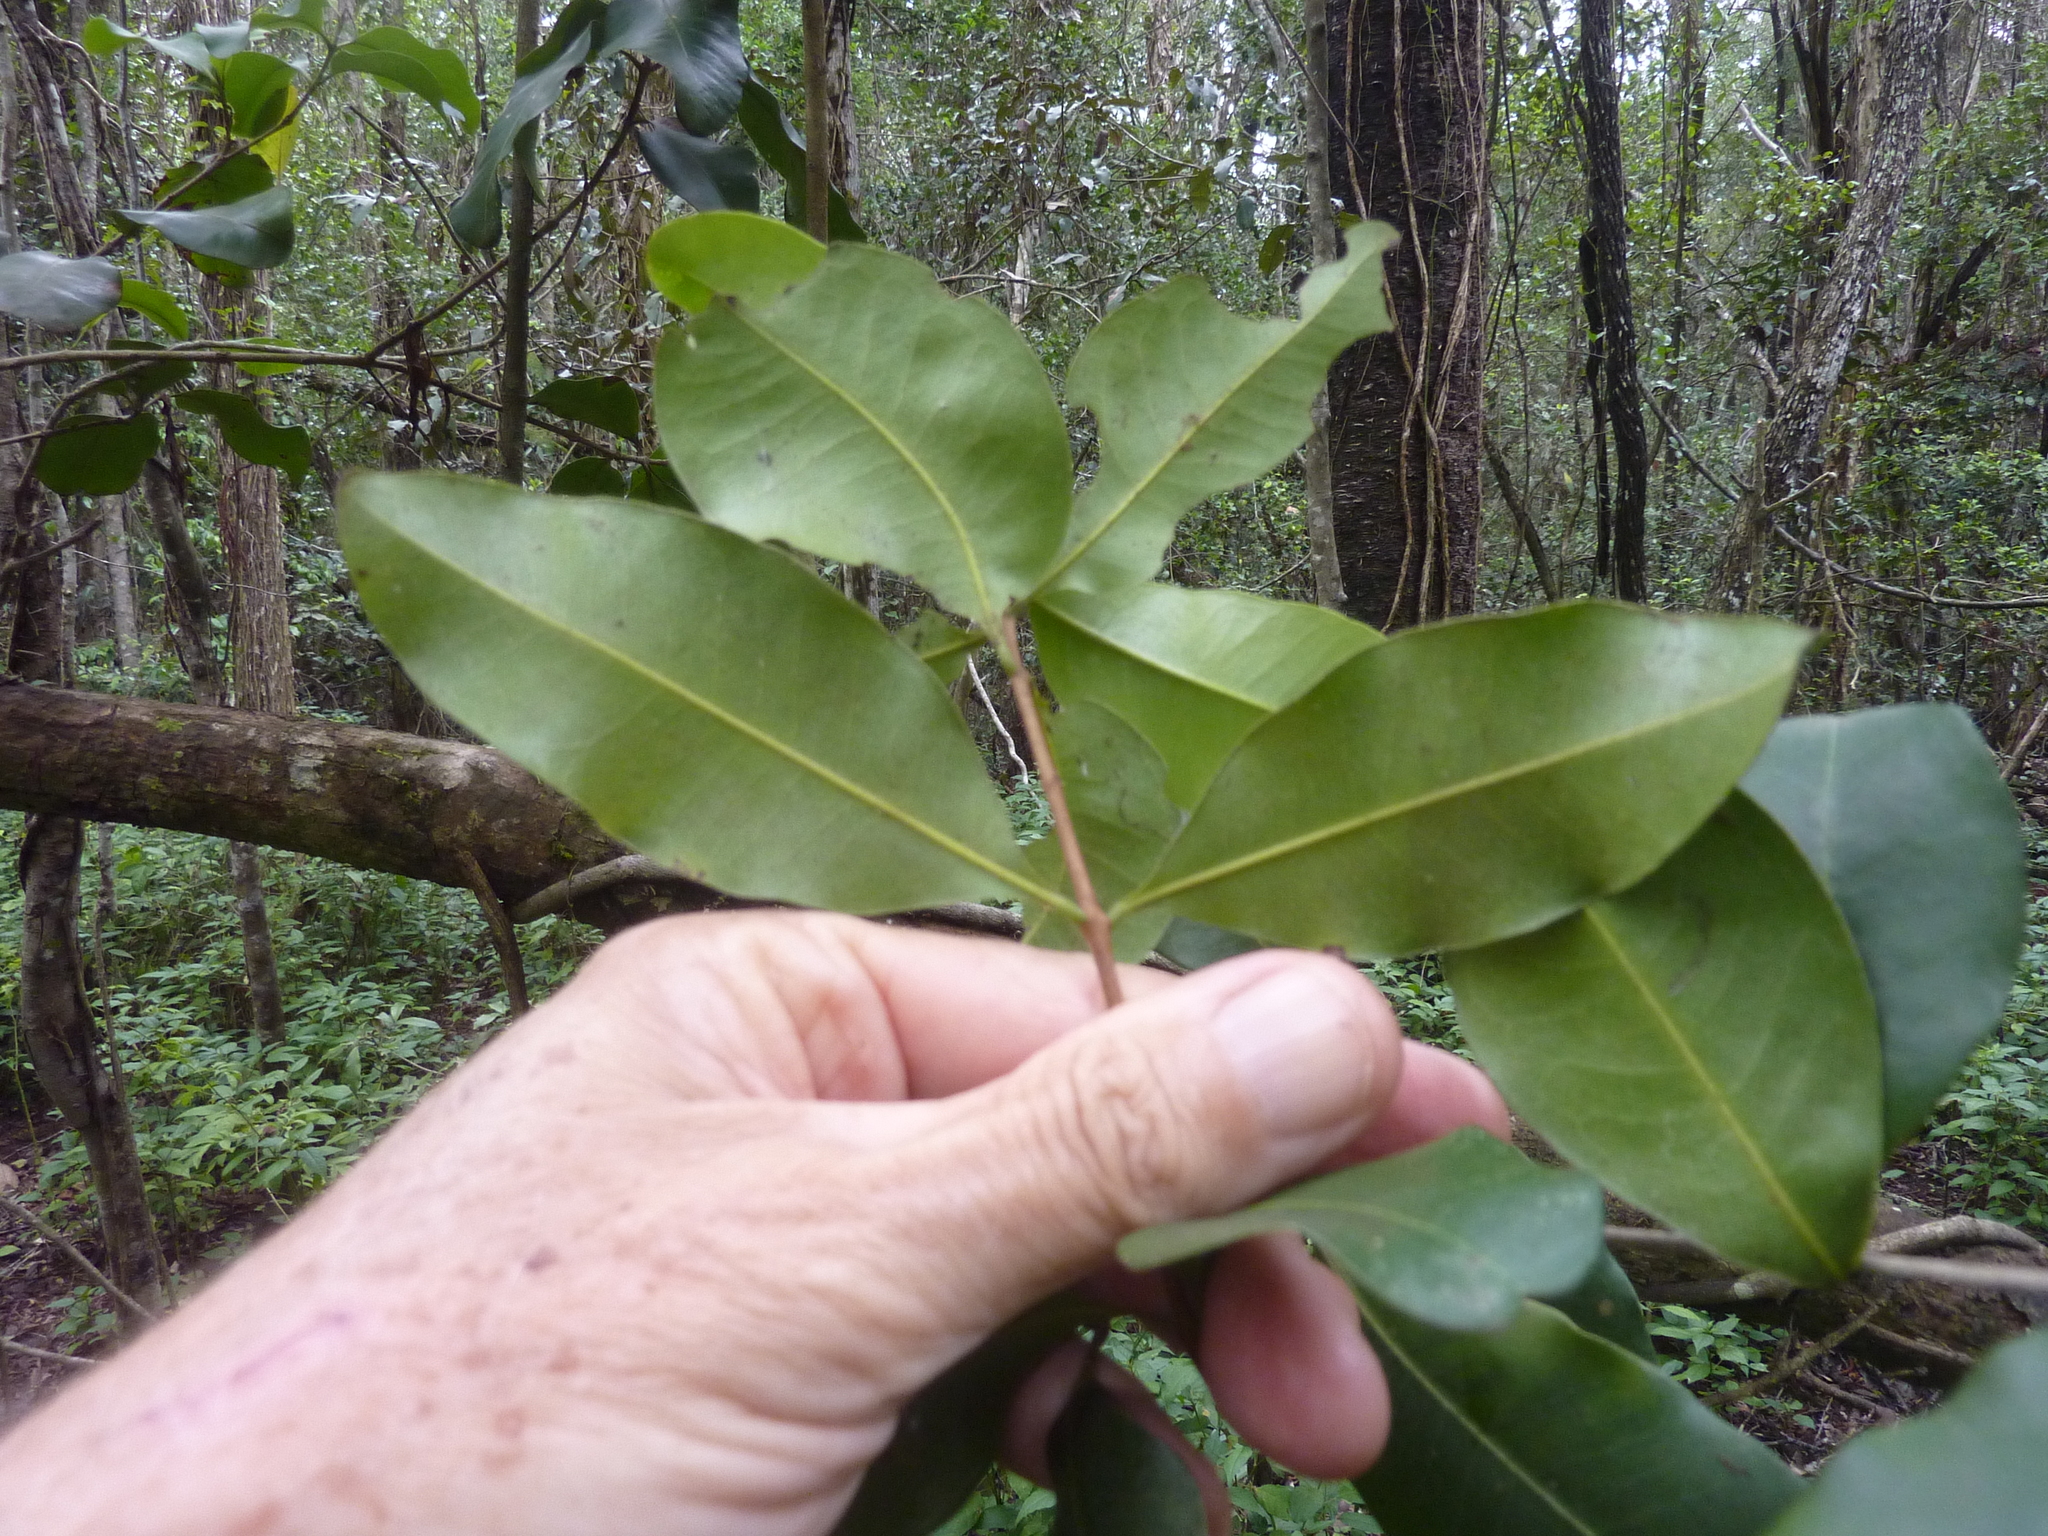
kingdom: Plantae
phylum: Tracheophyta
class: Magnoliopsida
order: Myrtales
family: Myrtaceae
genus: Xanthostemon
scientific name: Xanthostemon oppositifolius
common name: Southern penda
